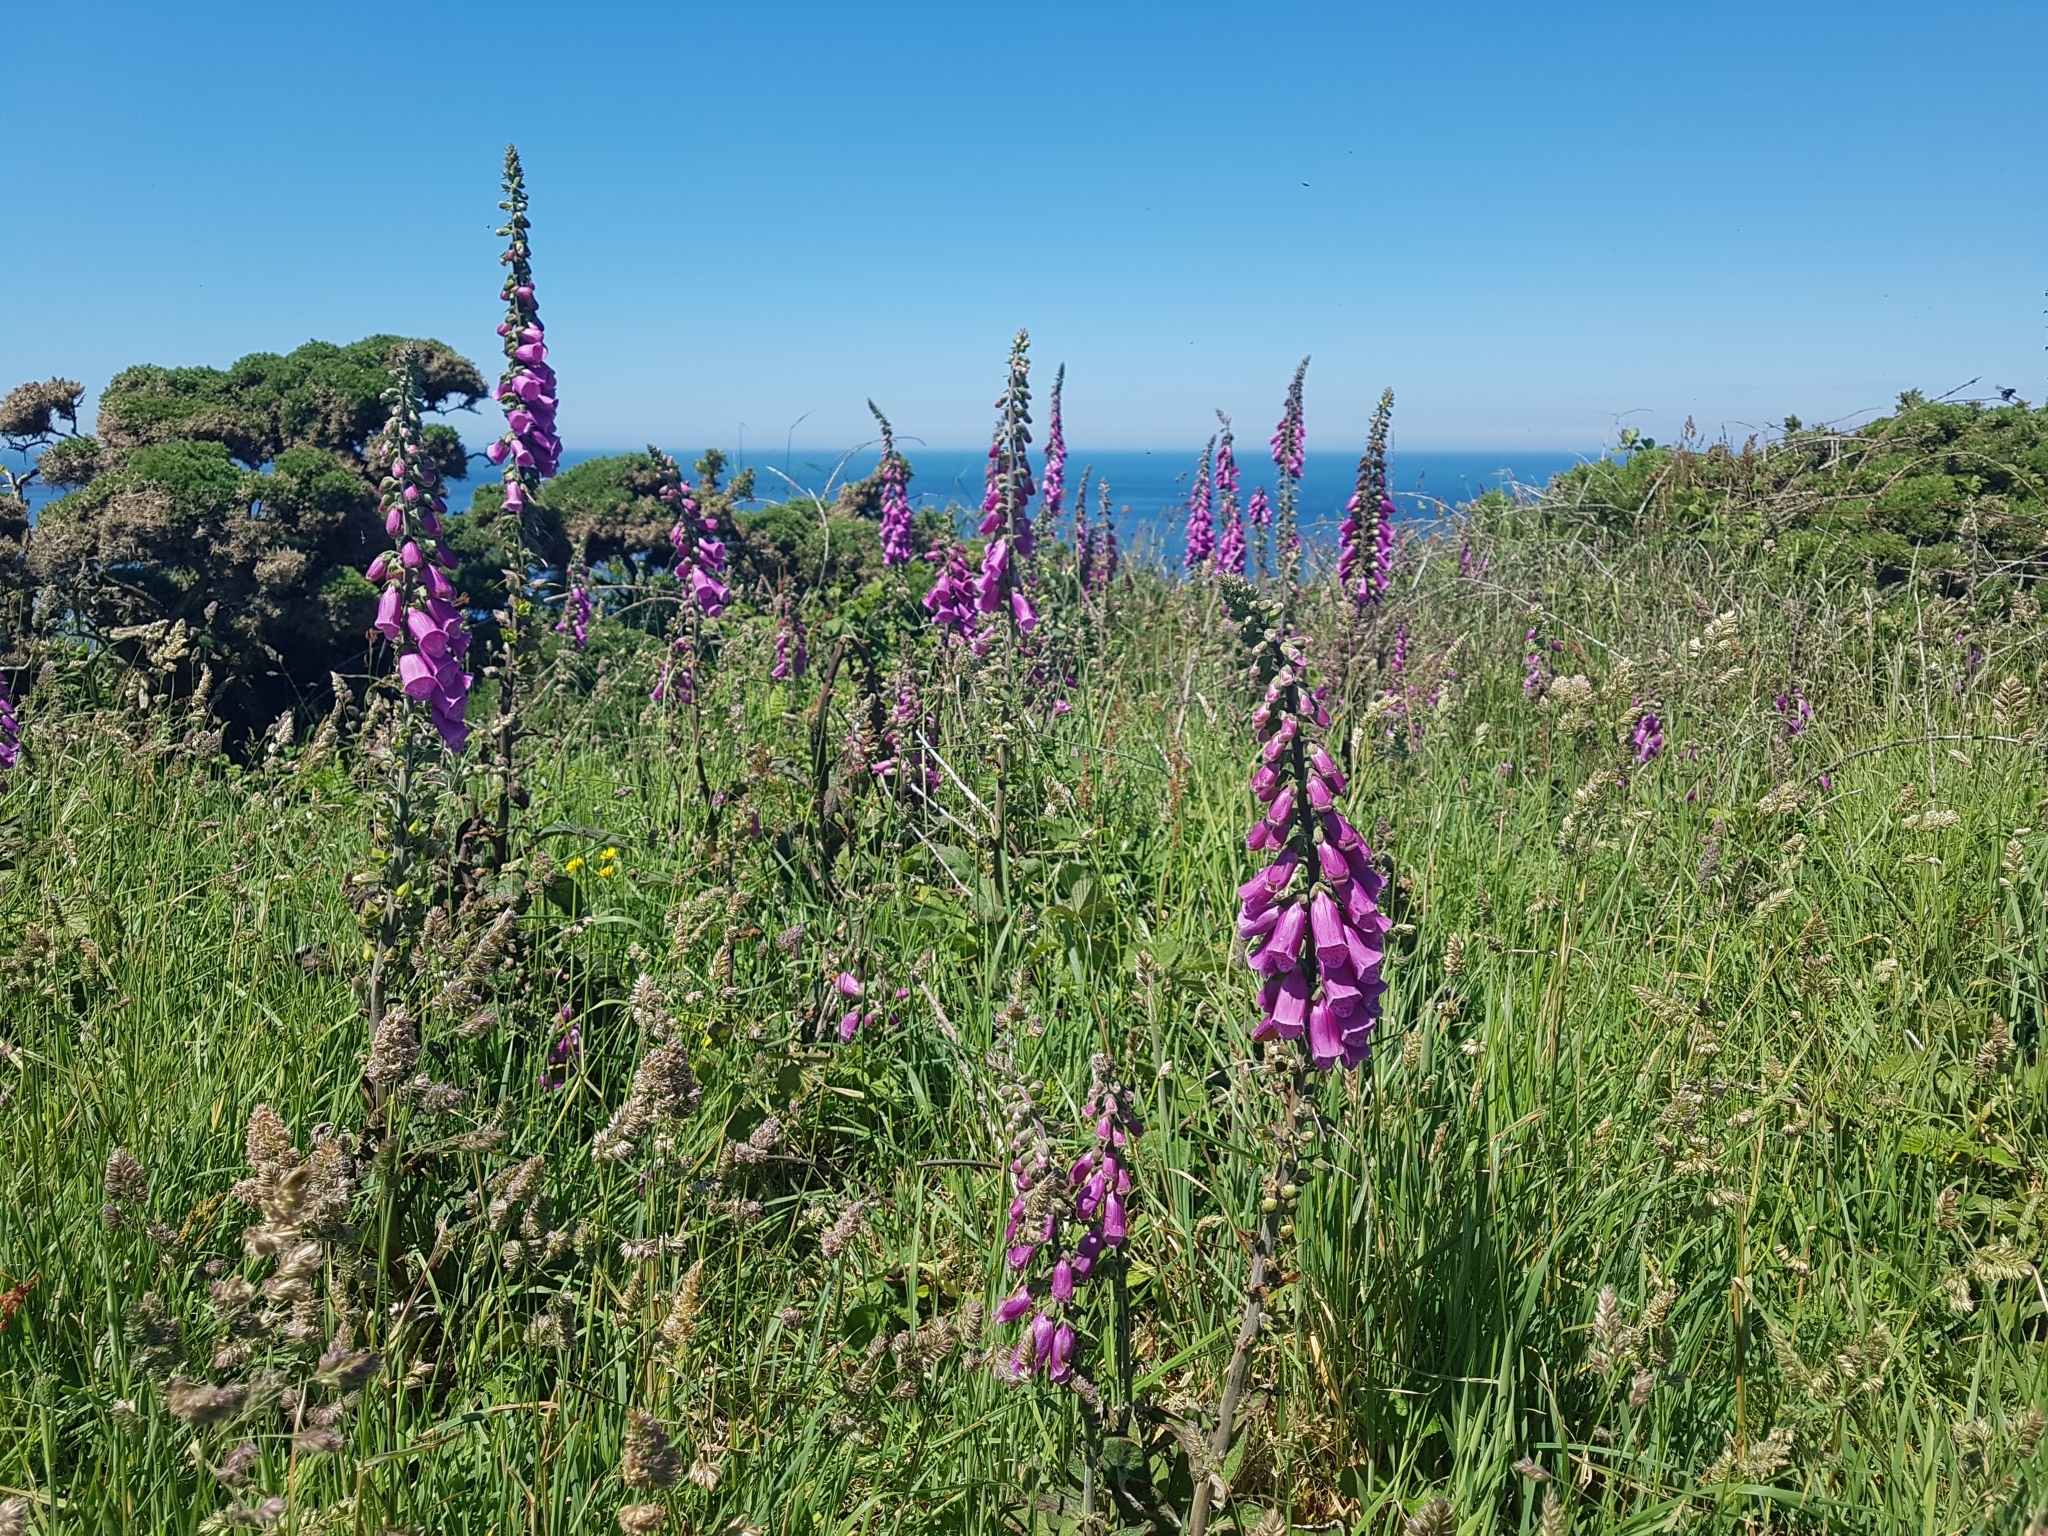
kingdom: Plantae
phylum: Tracheophyta
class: Magnoliopsida
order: Lamiales
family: Plantaginaceae
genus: Digitalis
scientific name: Digitalis purpurea
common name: Foxglove
